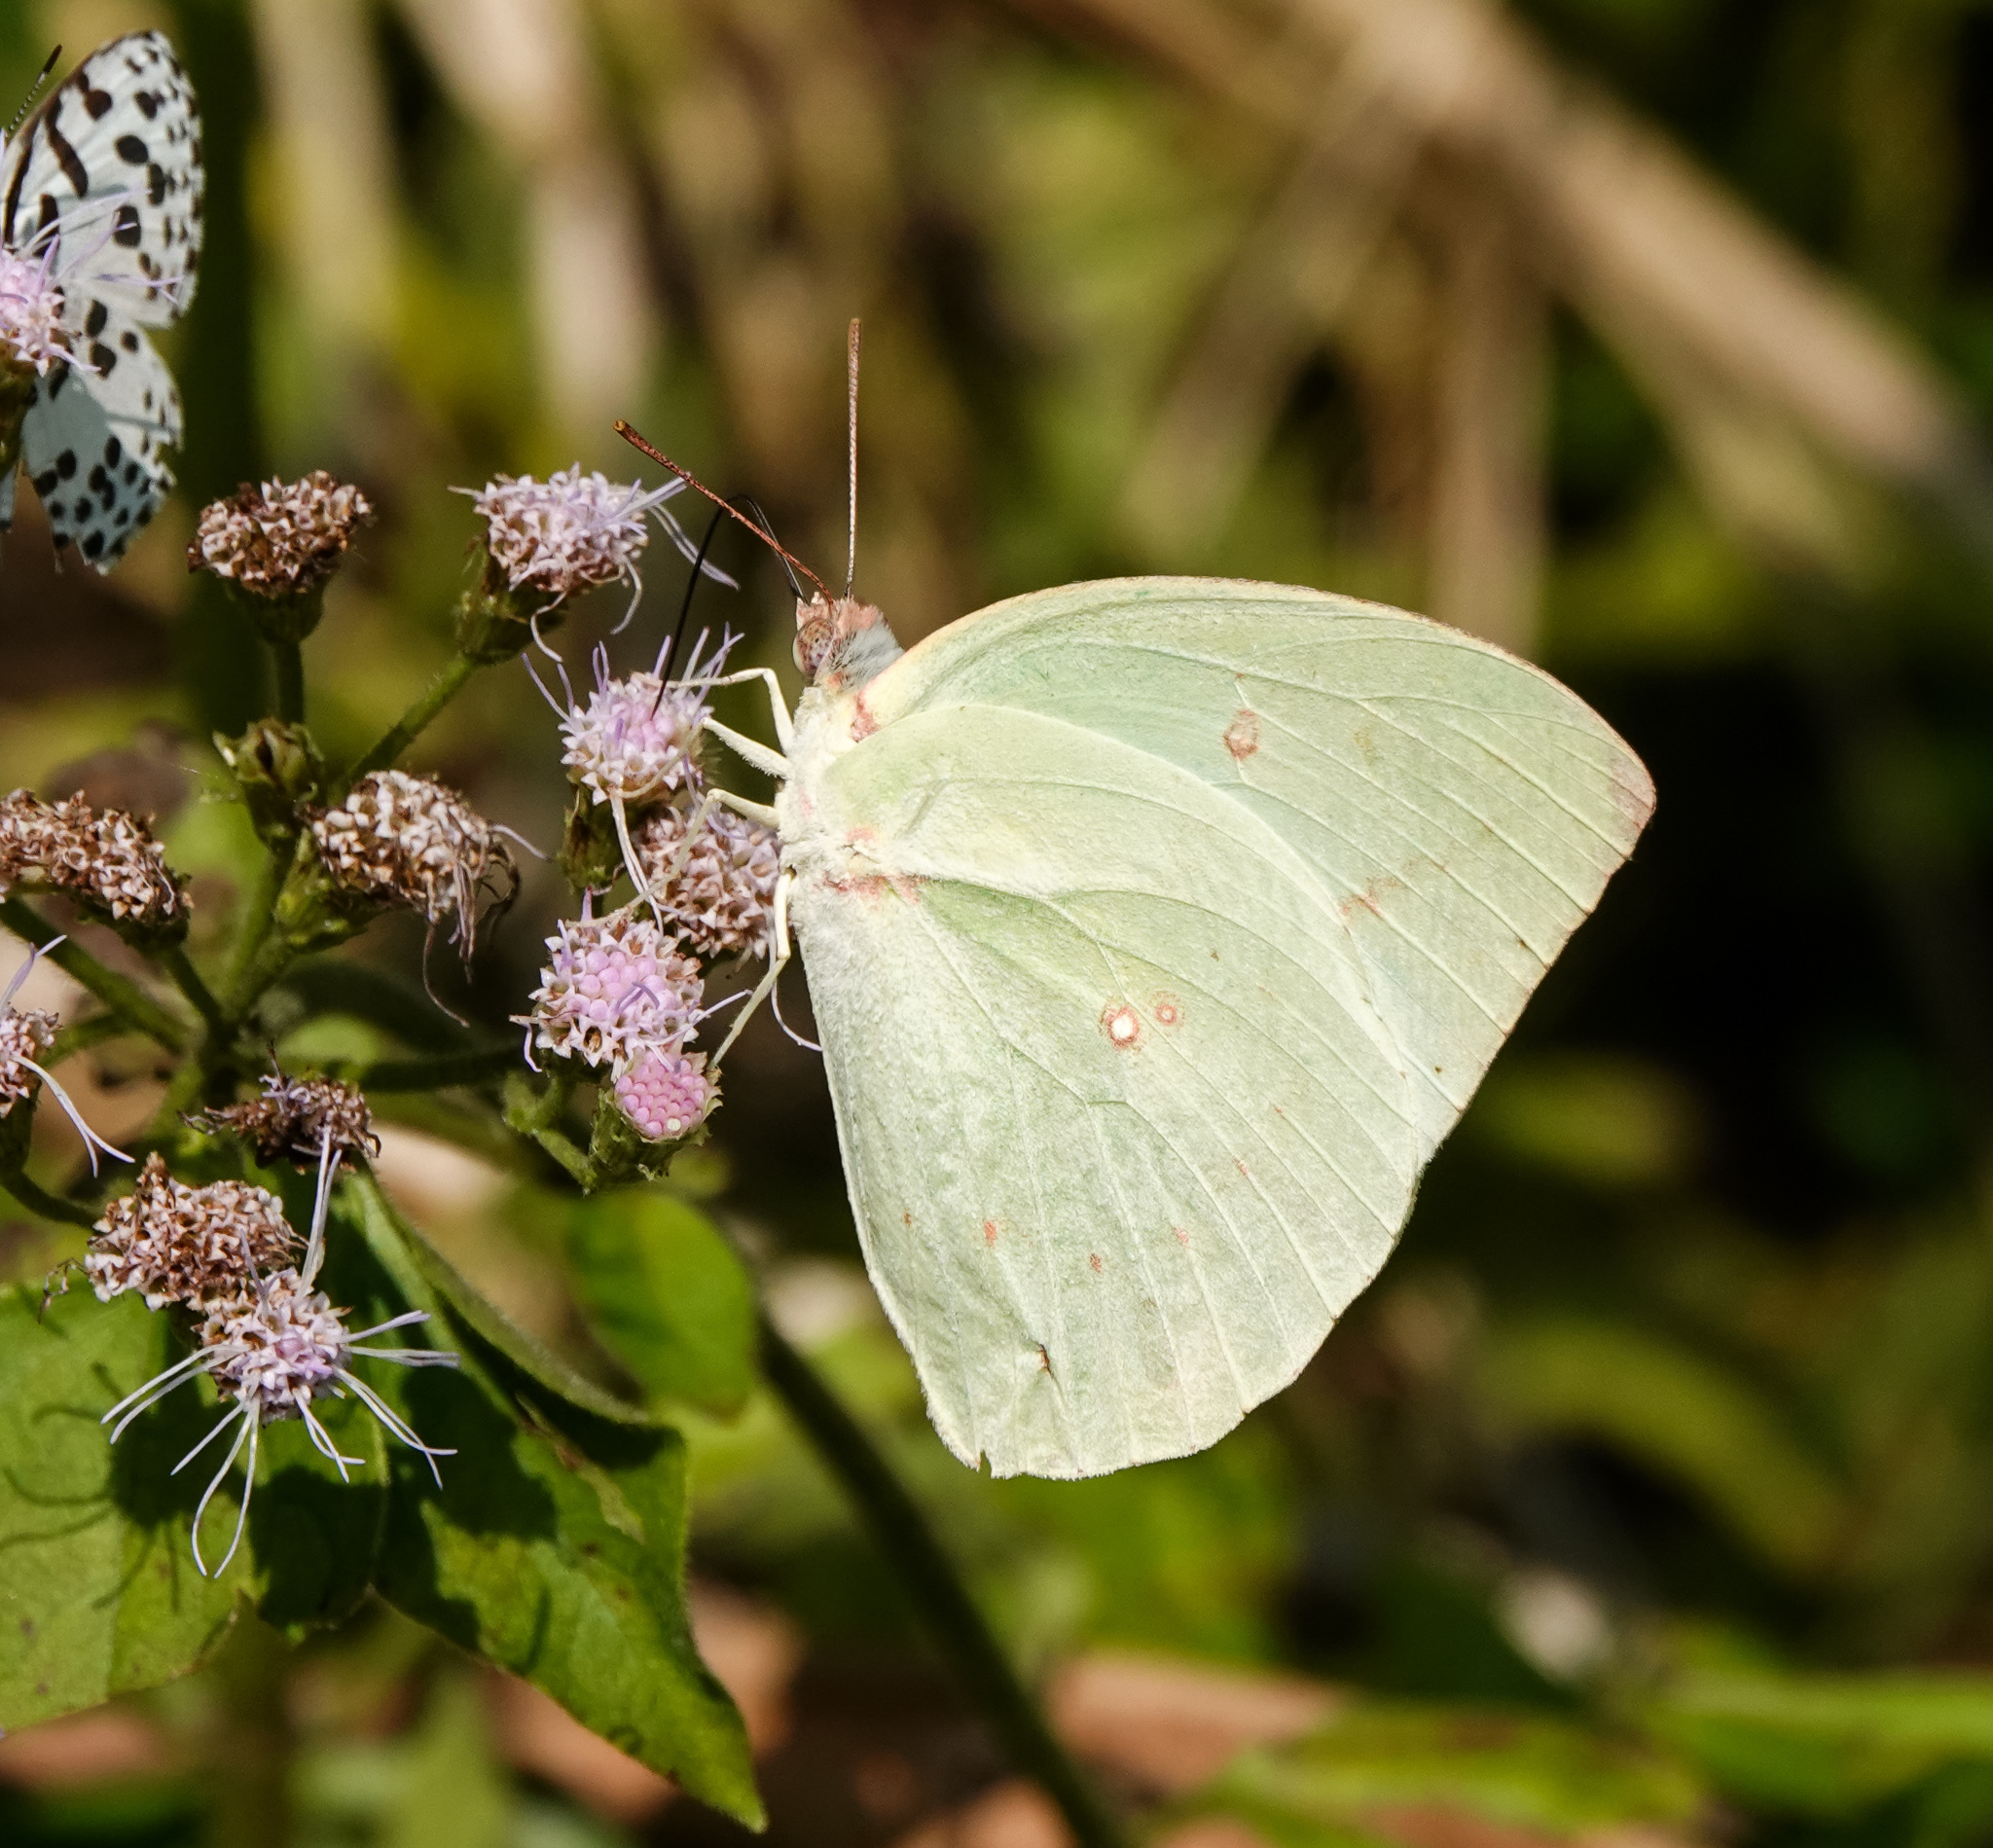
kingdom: Animalia
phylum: Arthropoda
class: Insecta
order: Lepidoptera
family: Pieridae
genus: Catopsilia
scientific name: Catopsilia pomona
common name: Common emigrant
